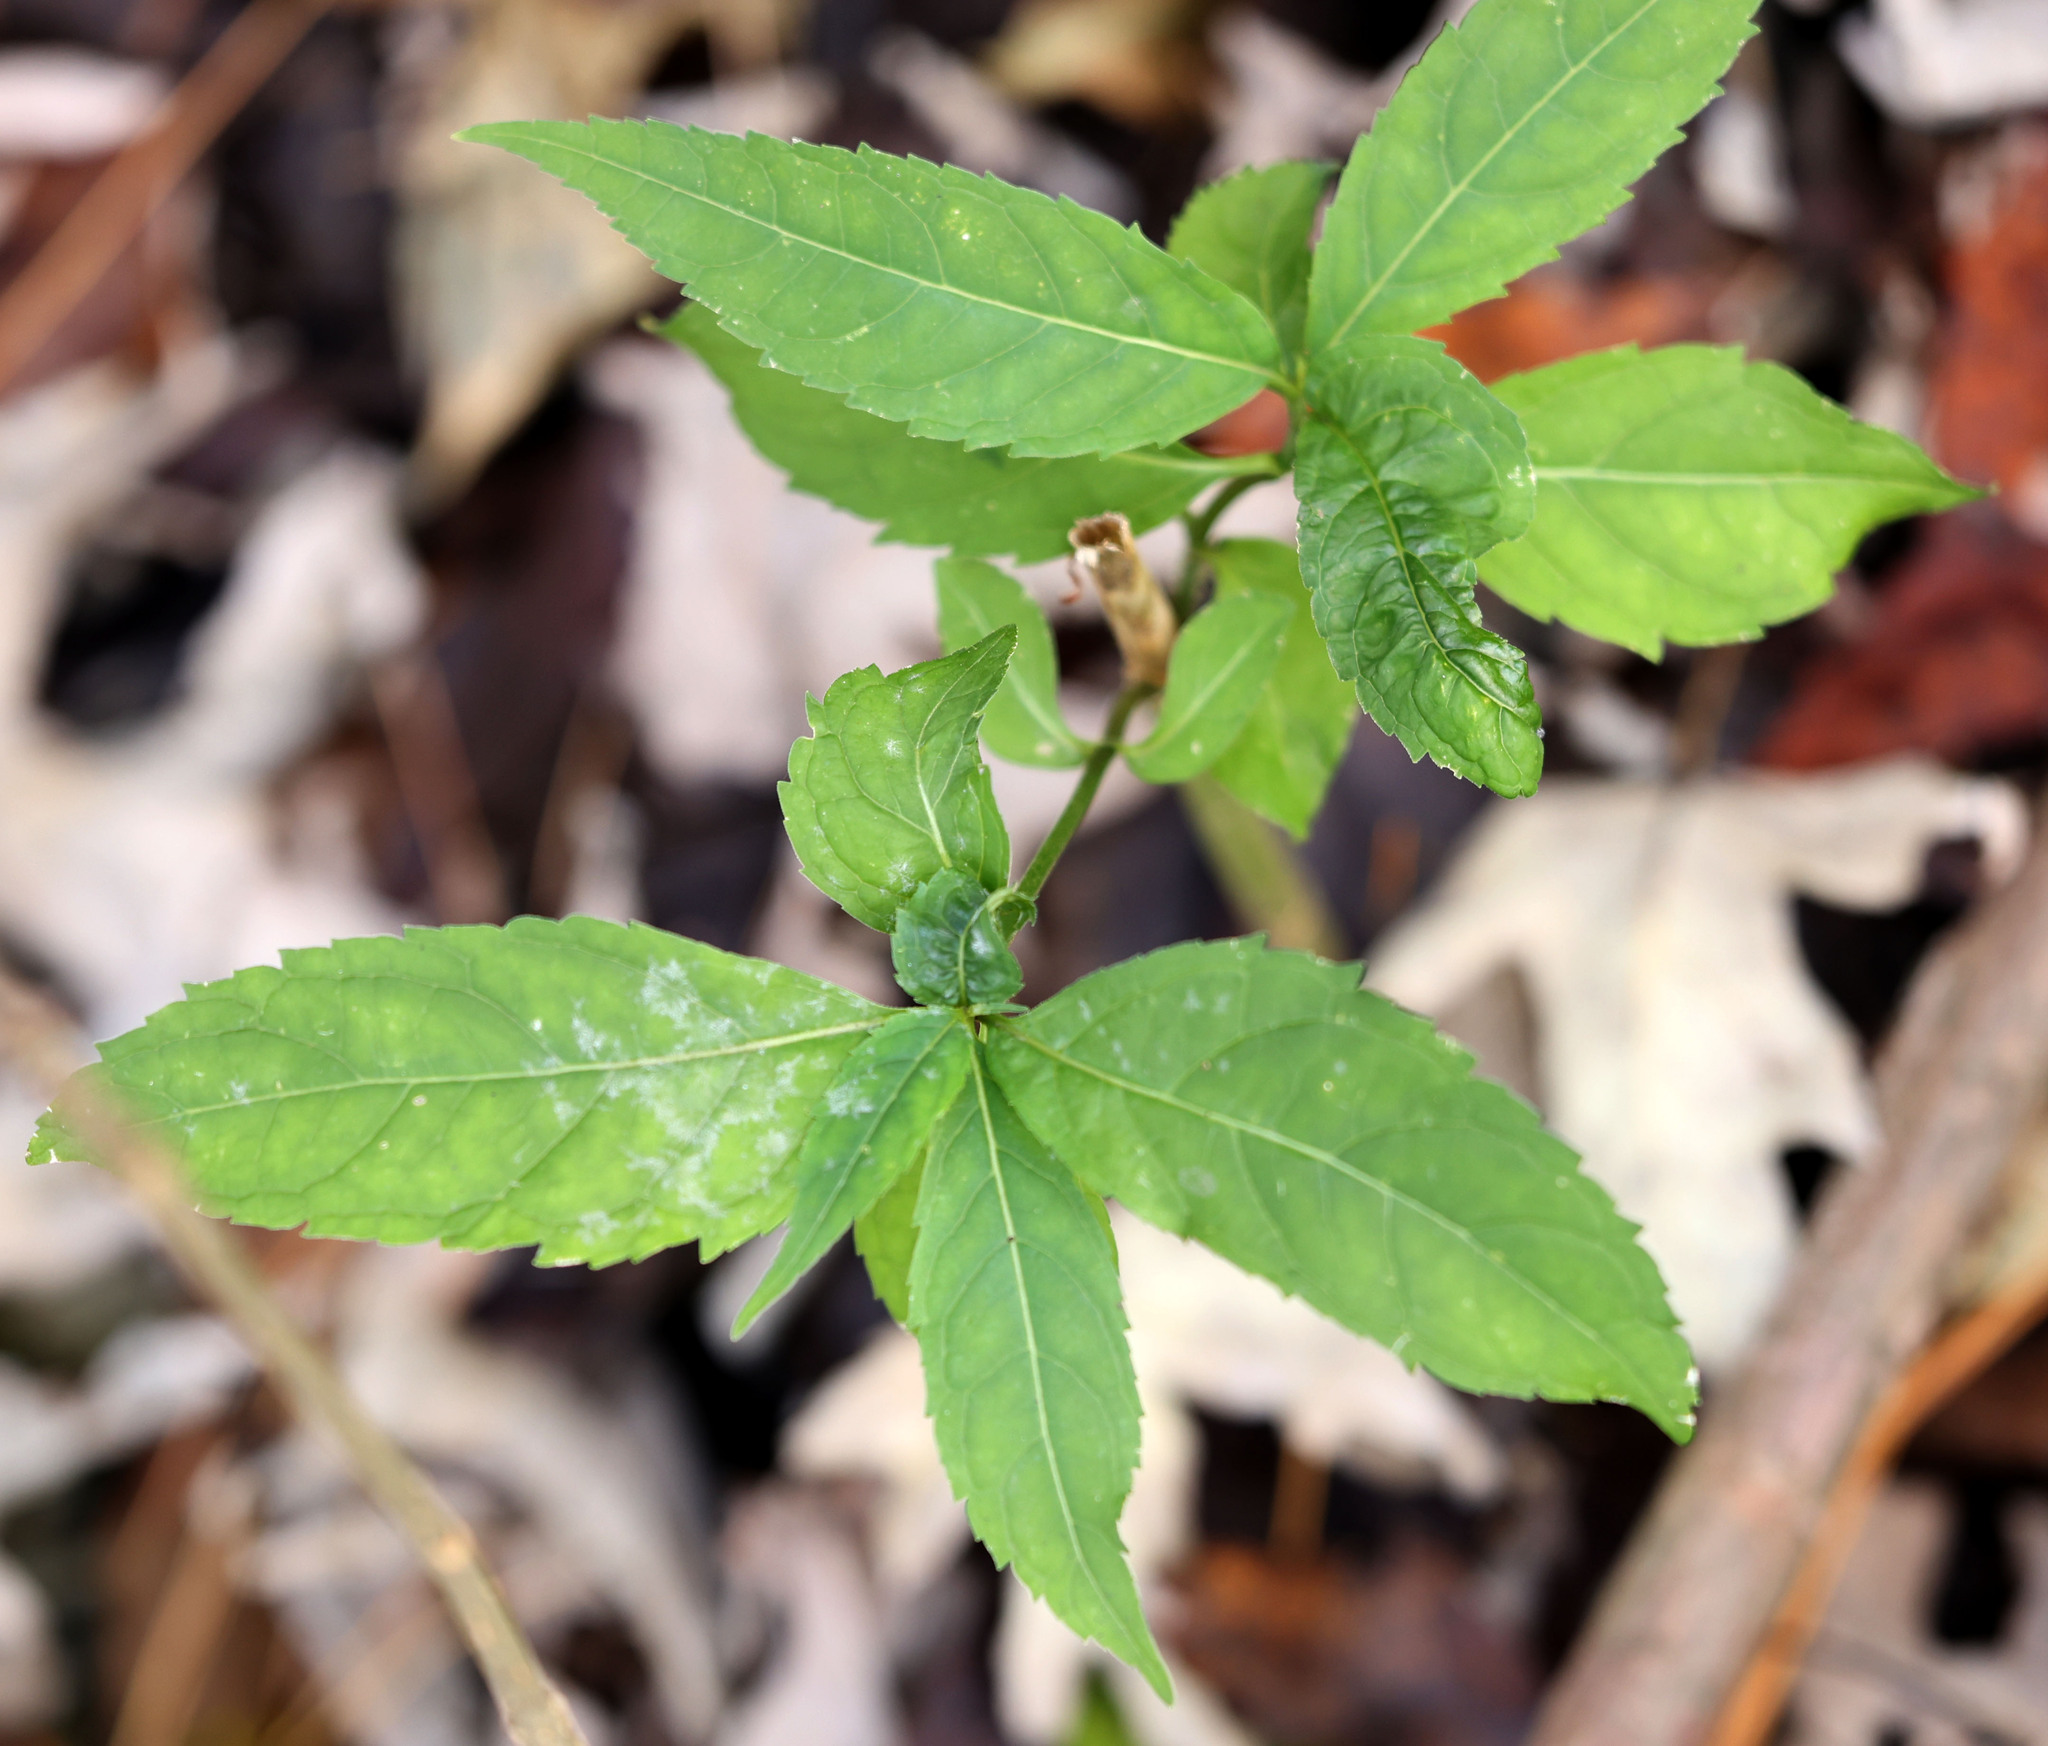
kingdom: Plantae
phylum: Tracheophyta
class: Magnoliopsida
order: Lamiales
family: Plantaginaceae
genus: Chelone
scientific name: Chelone glabra
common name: Snakehead
